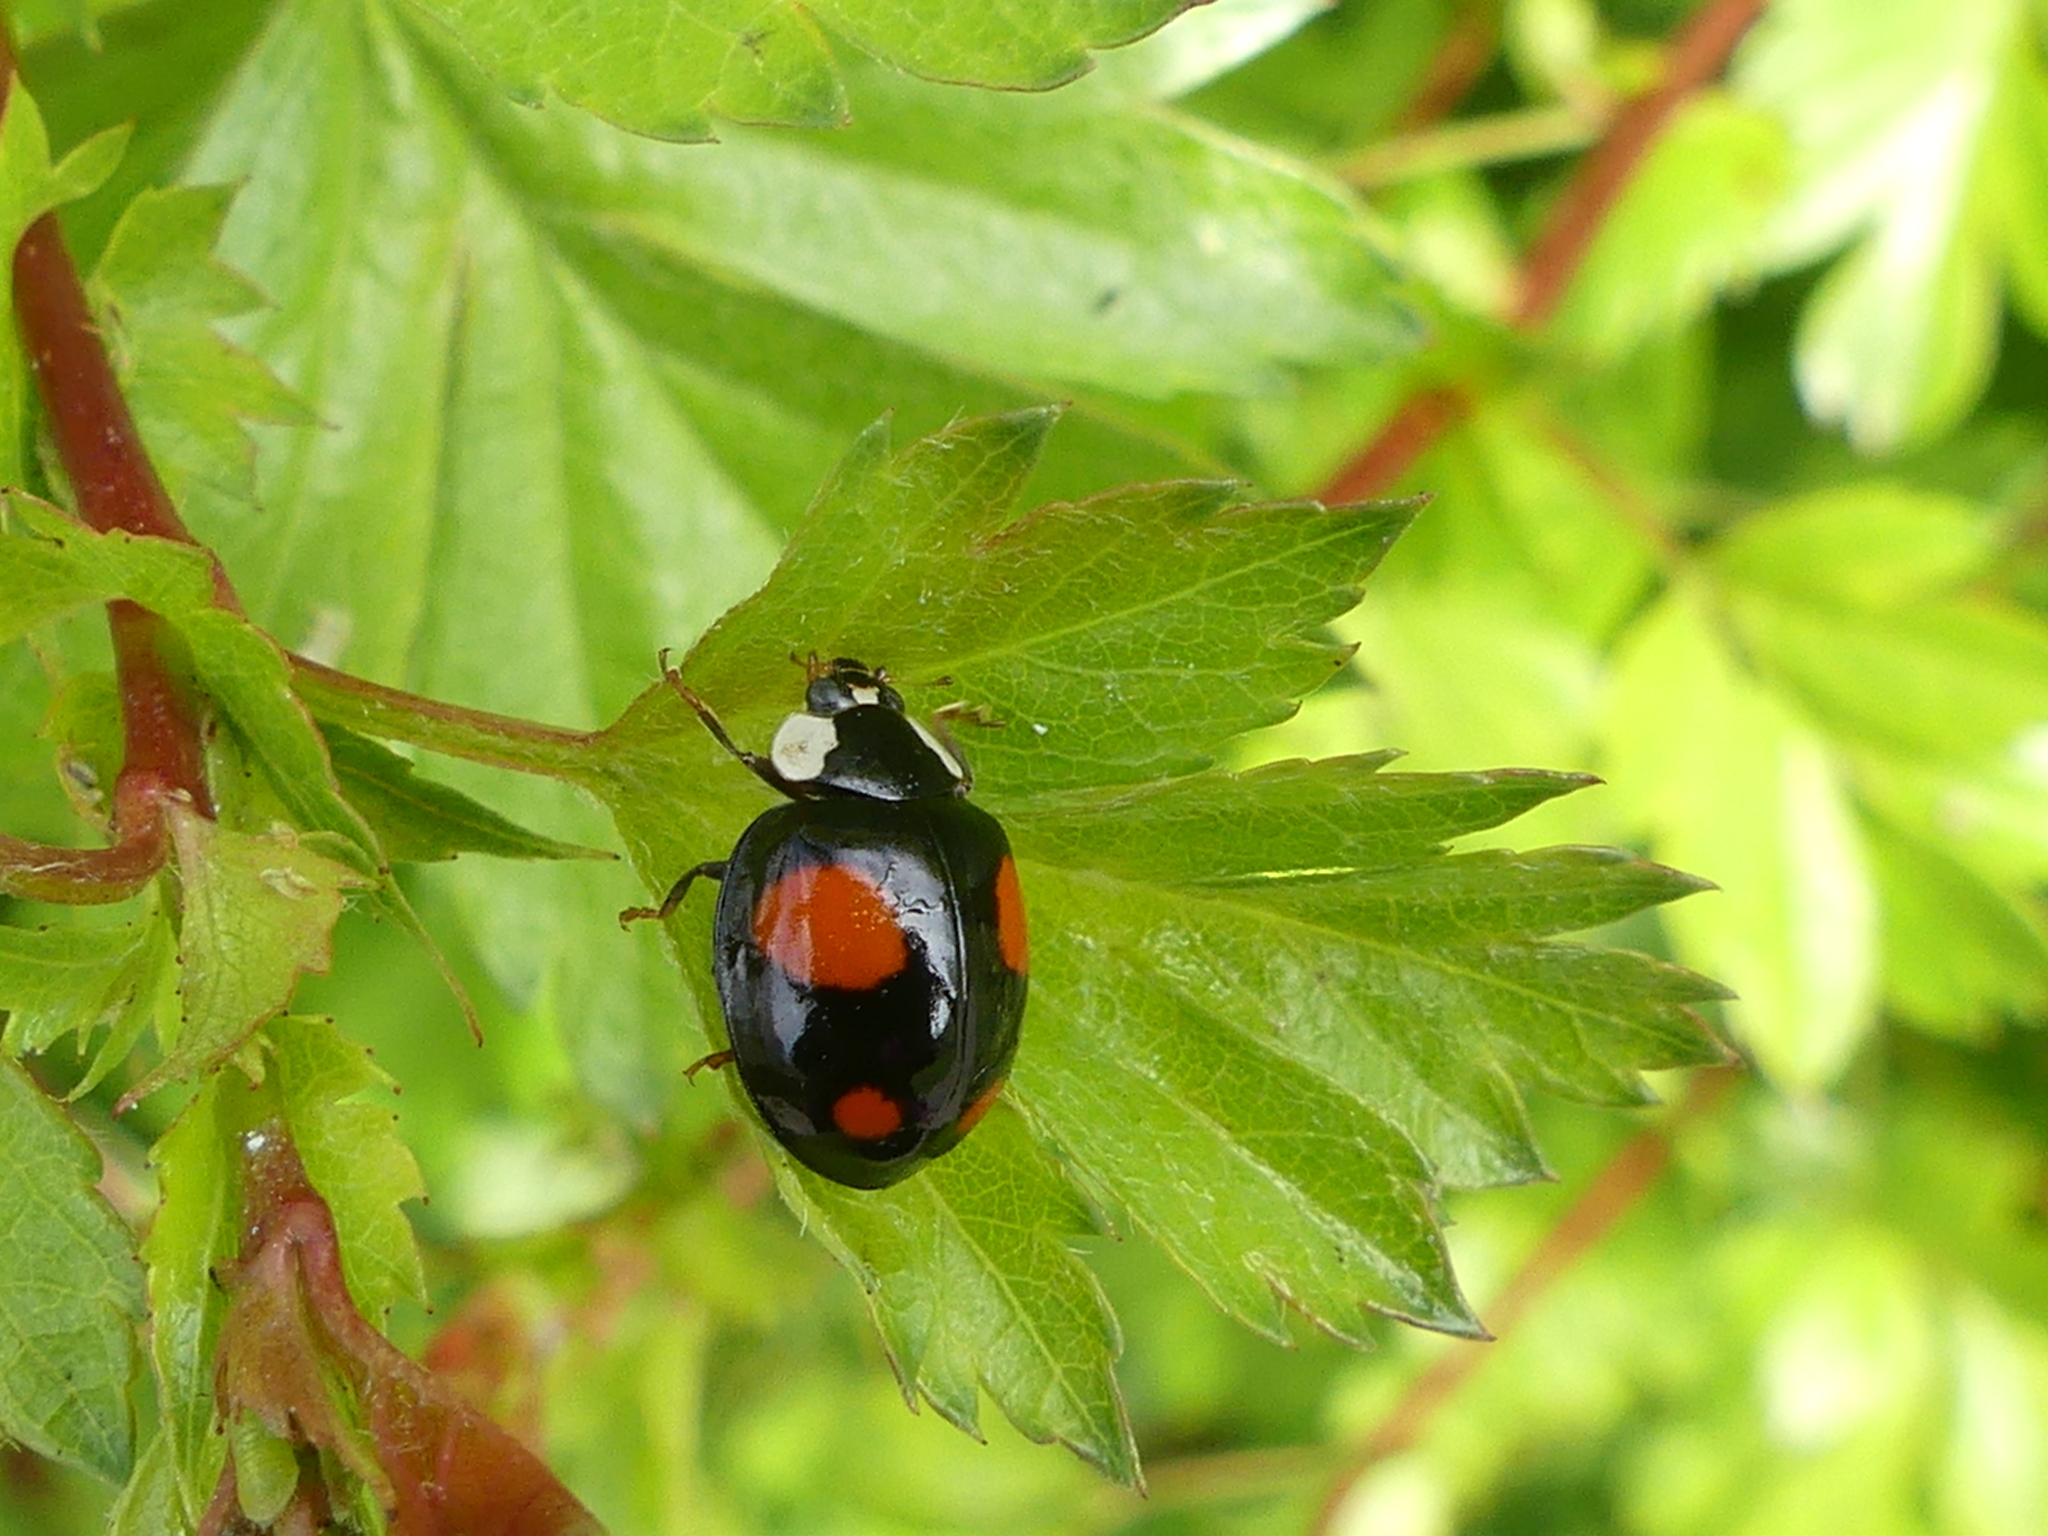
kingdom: Animalia
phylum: Arthropoda
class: Insecta
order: Coleoptera
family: Coccinellidae
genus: Harmonia
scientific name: Harmonia axyridis
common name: Harlequin ladybird
